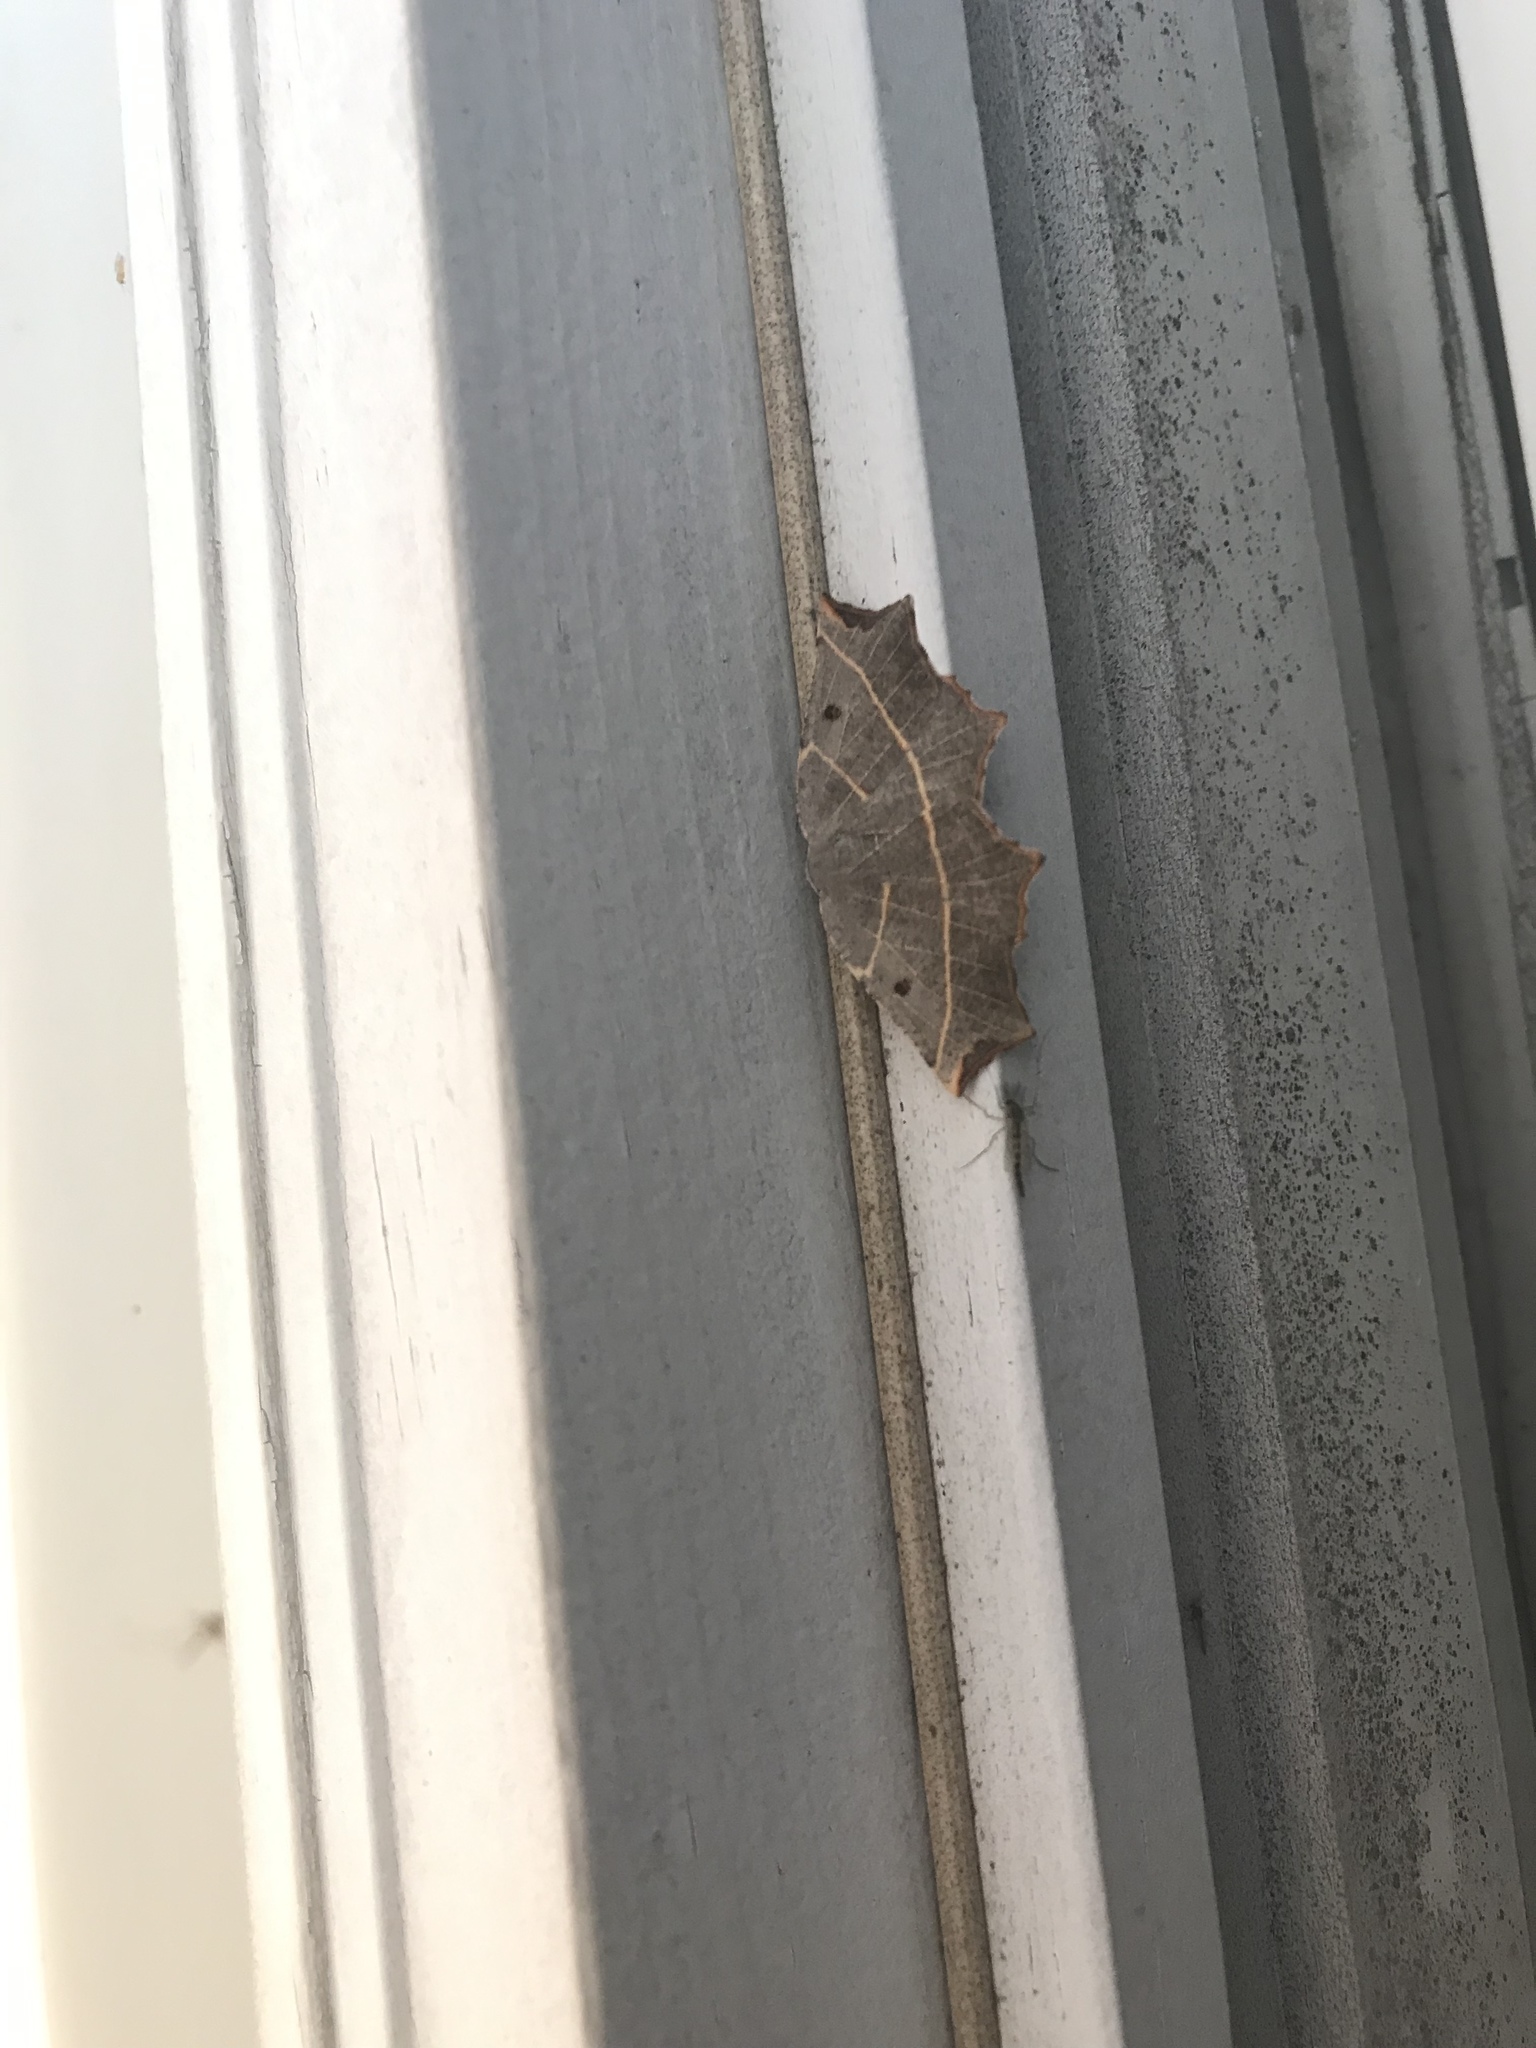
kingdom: Animalia
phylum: Arthropoda
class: Insecta
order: Lepidoptera
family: Geometridae
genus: Metanema
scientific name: Metanema inatomaria
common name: Pale metanema
